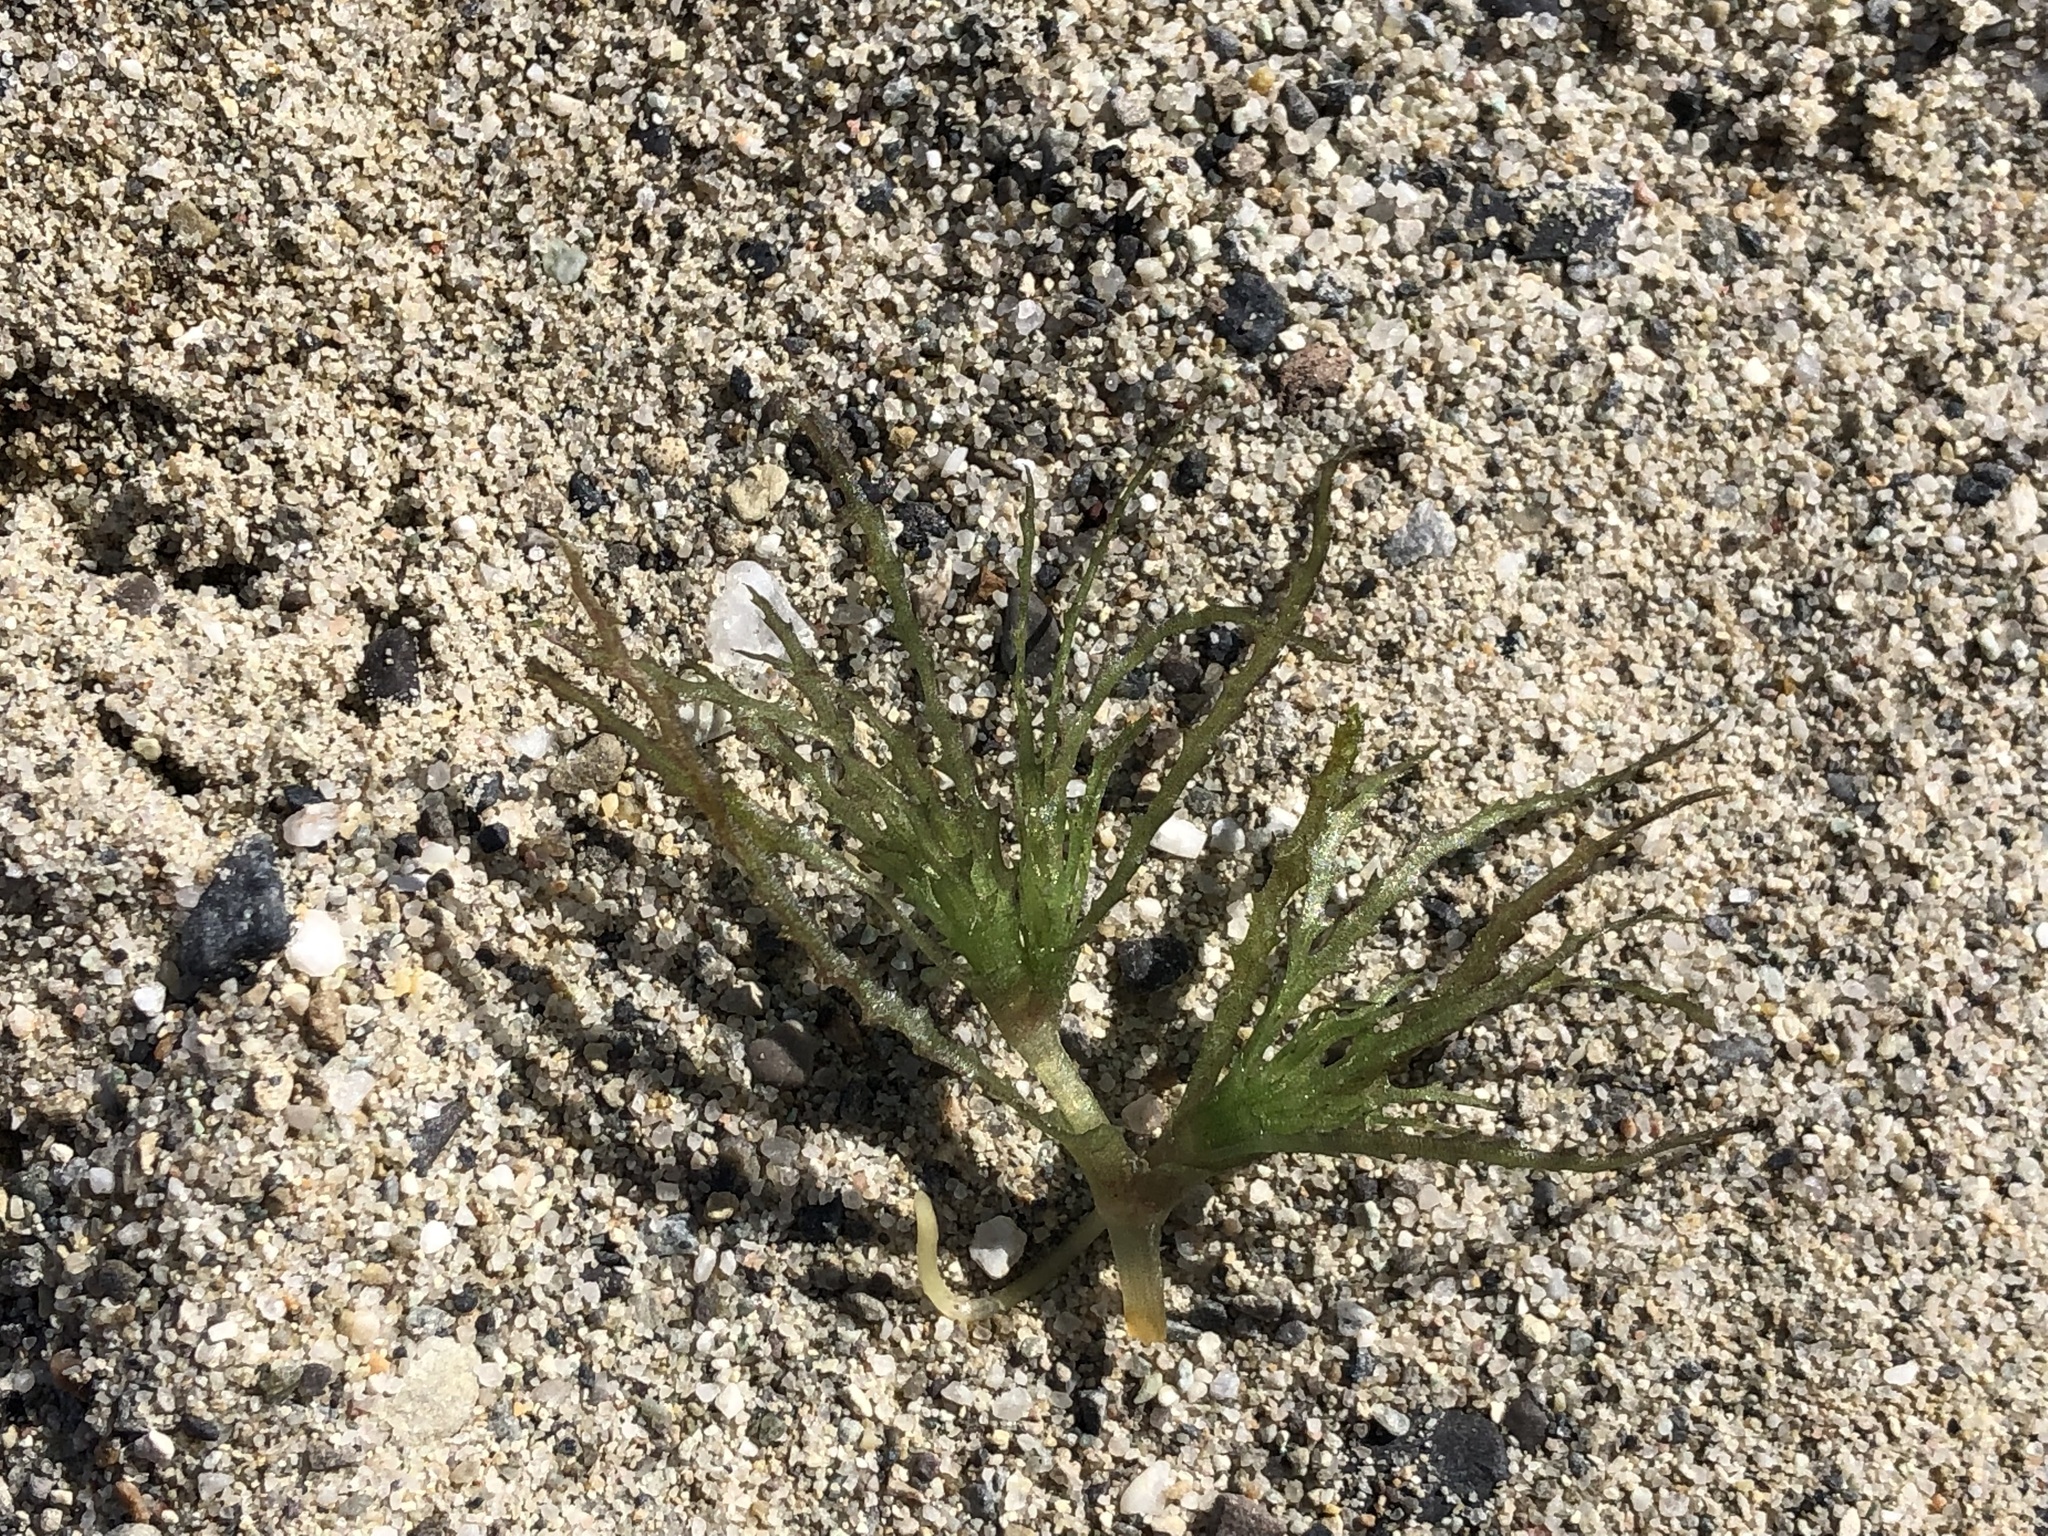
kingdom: Plantae
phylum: Tracheophyta
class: Liliopsida
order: Alismatales
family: Hydrocharitaceae
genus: Najas
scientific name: Najas marina
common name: Holly-leaved naiad
